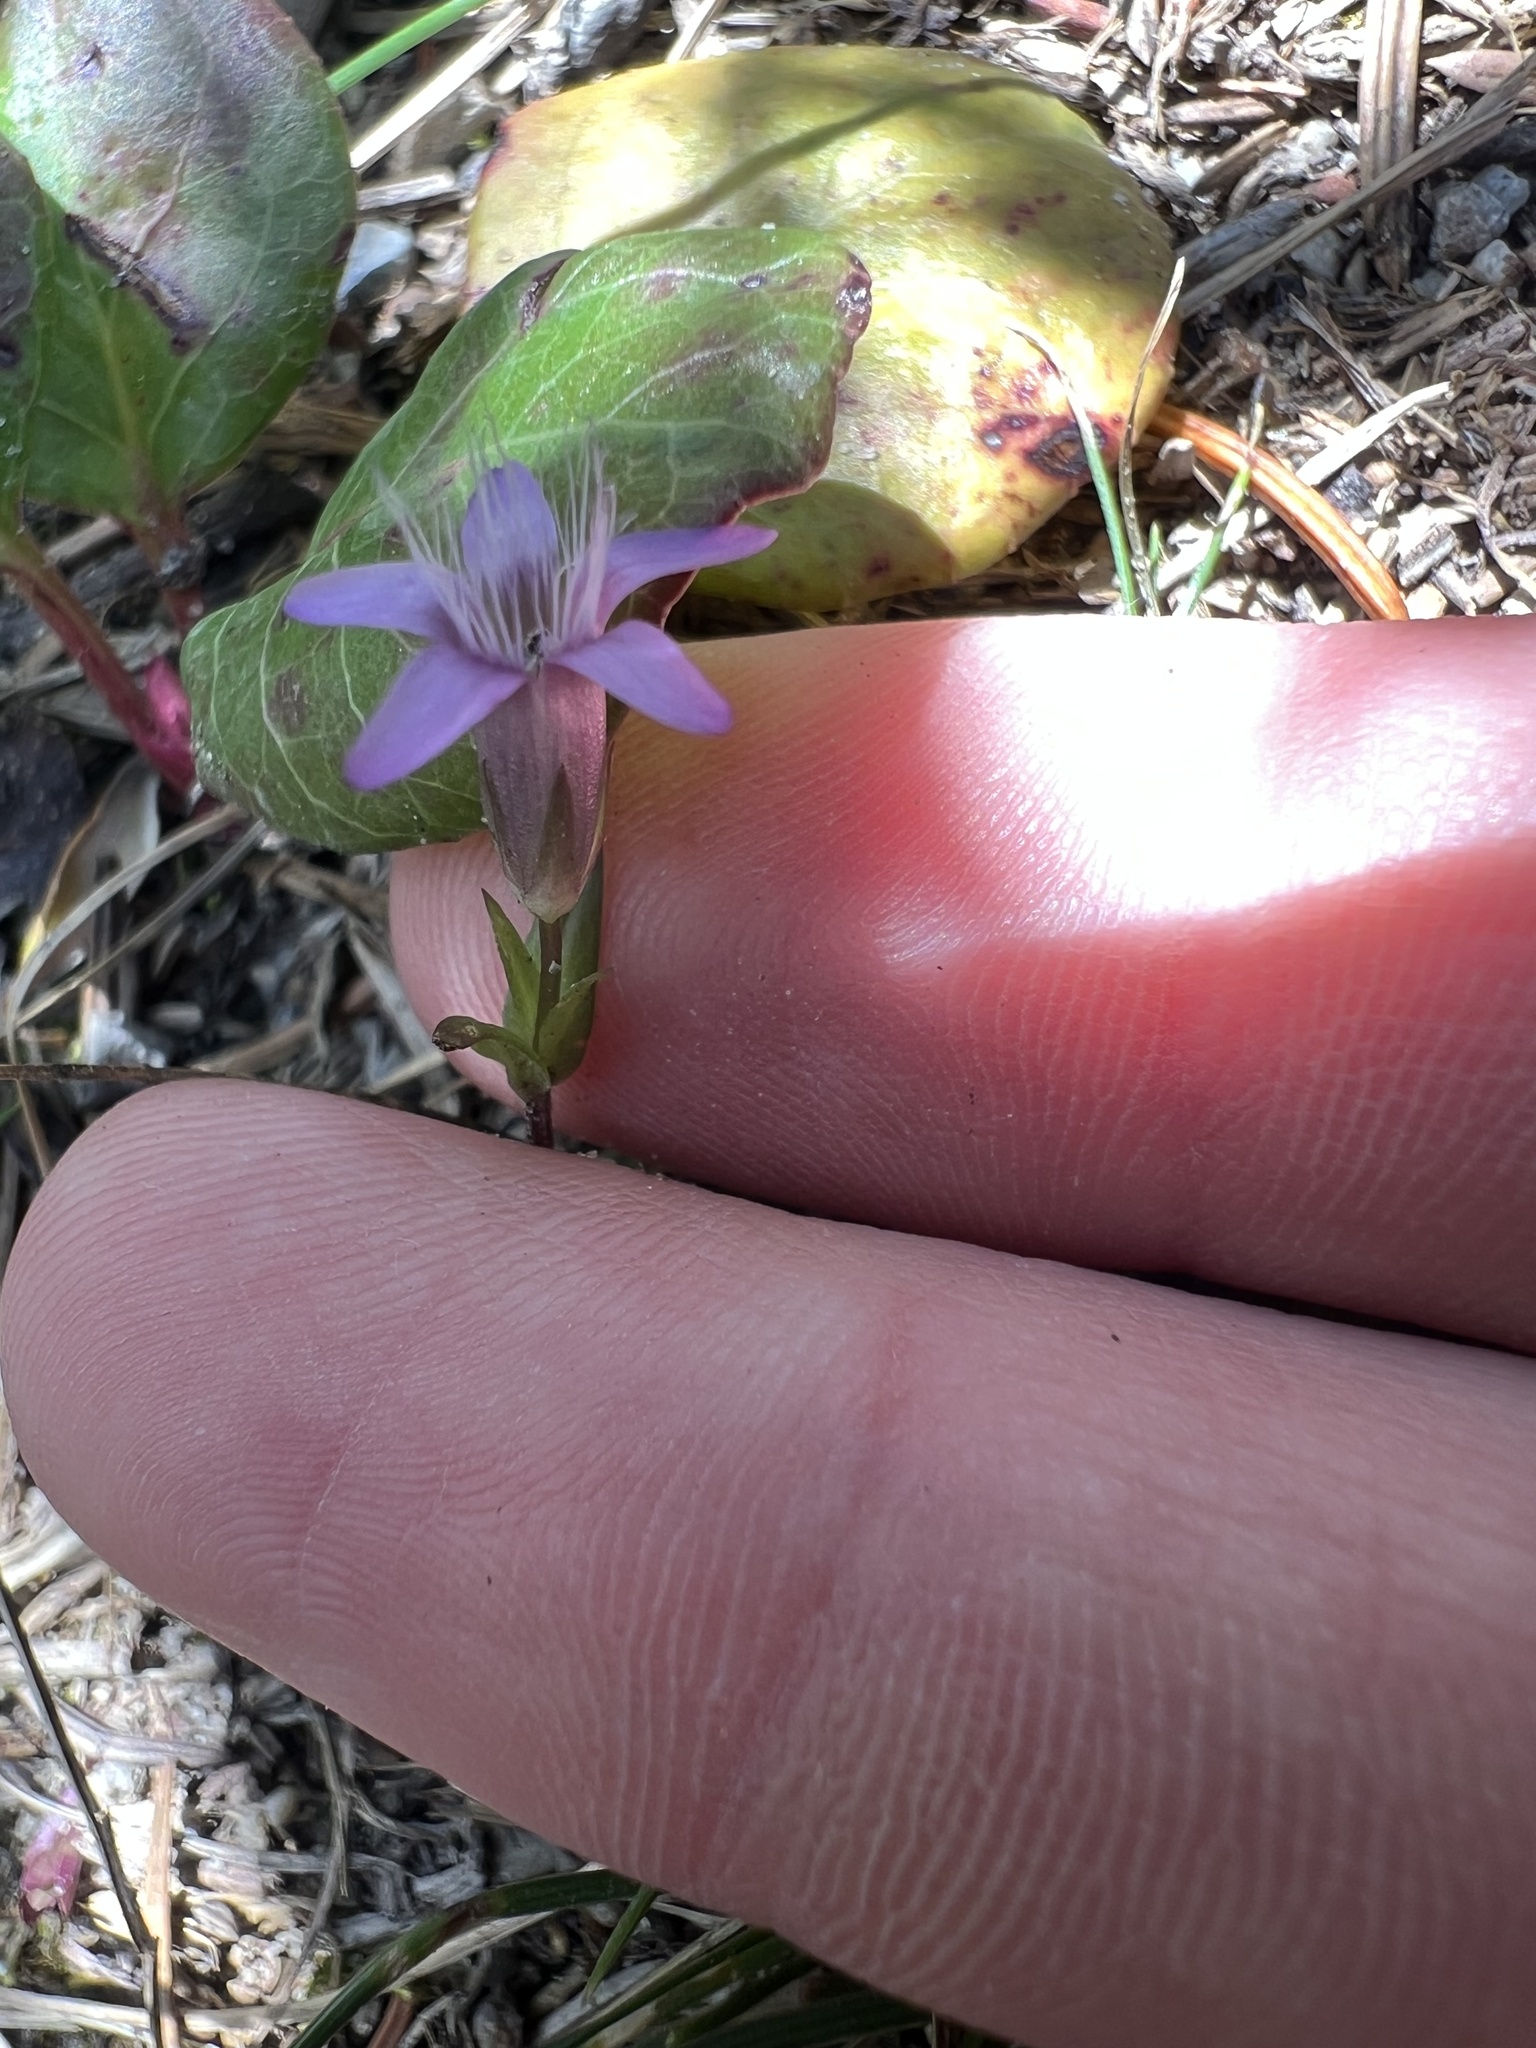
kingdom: Plantae
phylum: Tracheophyta
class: Magnoliopsida
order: Gentianales
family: Gentianaceae
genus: Gentianella
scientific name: Gentianella amarella
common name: Autumn gentian
